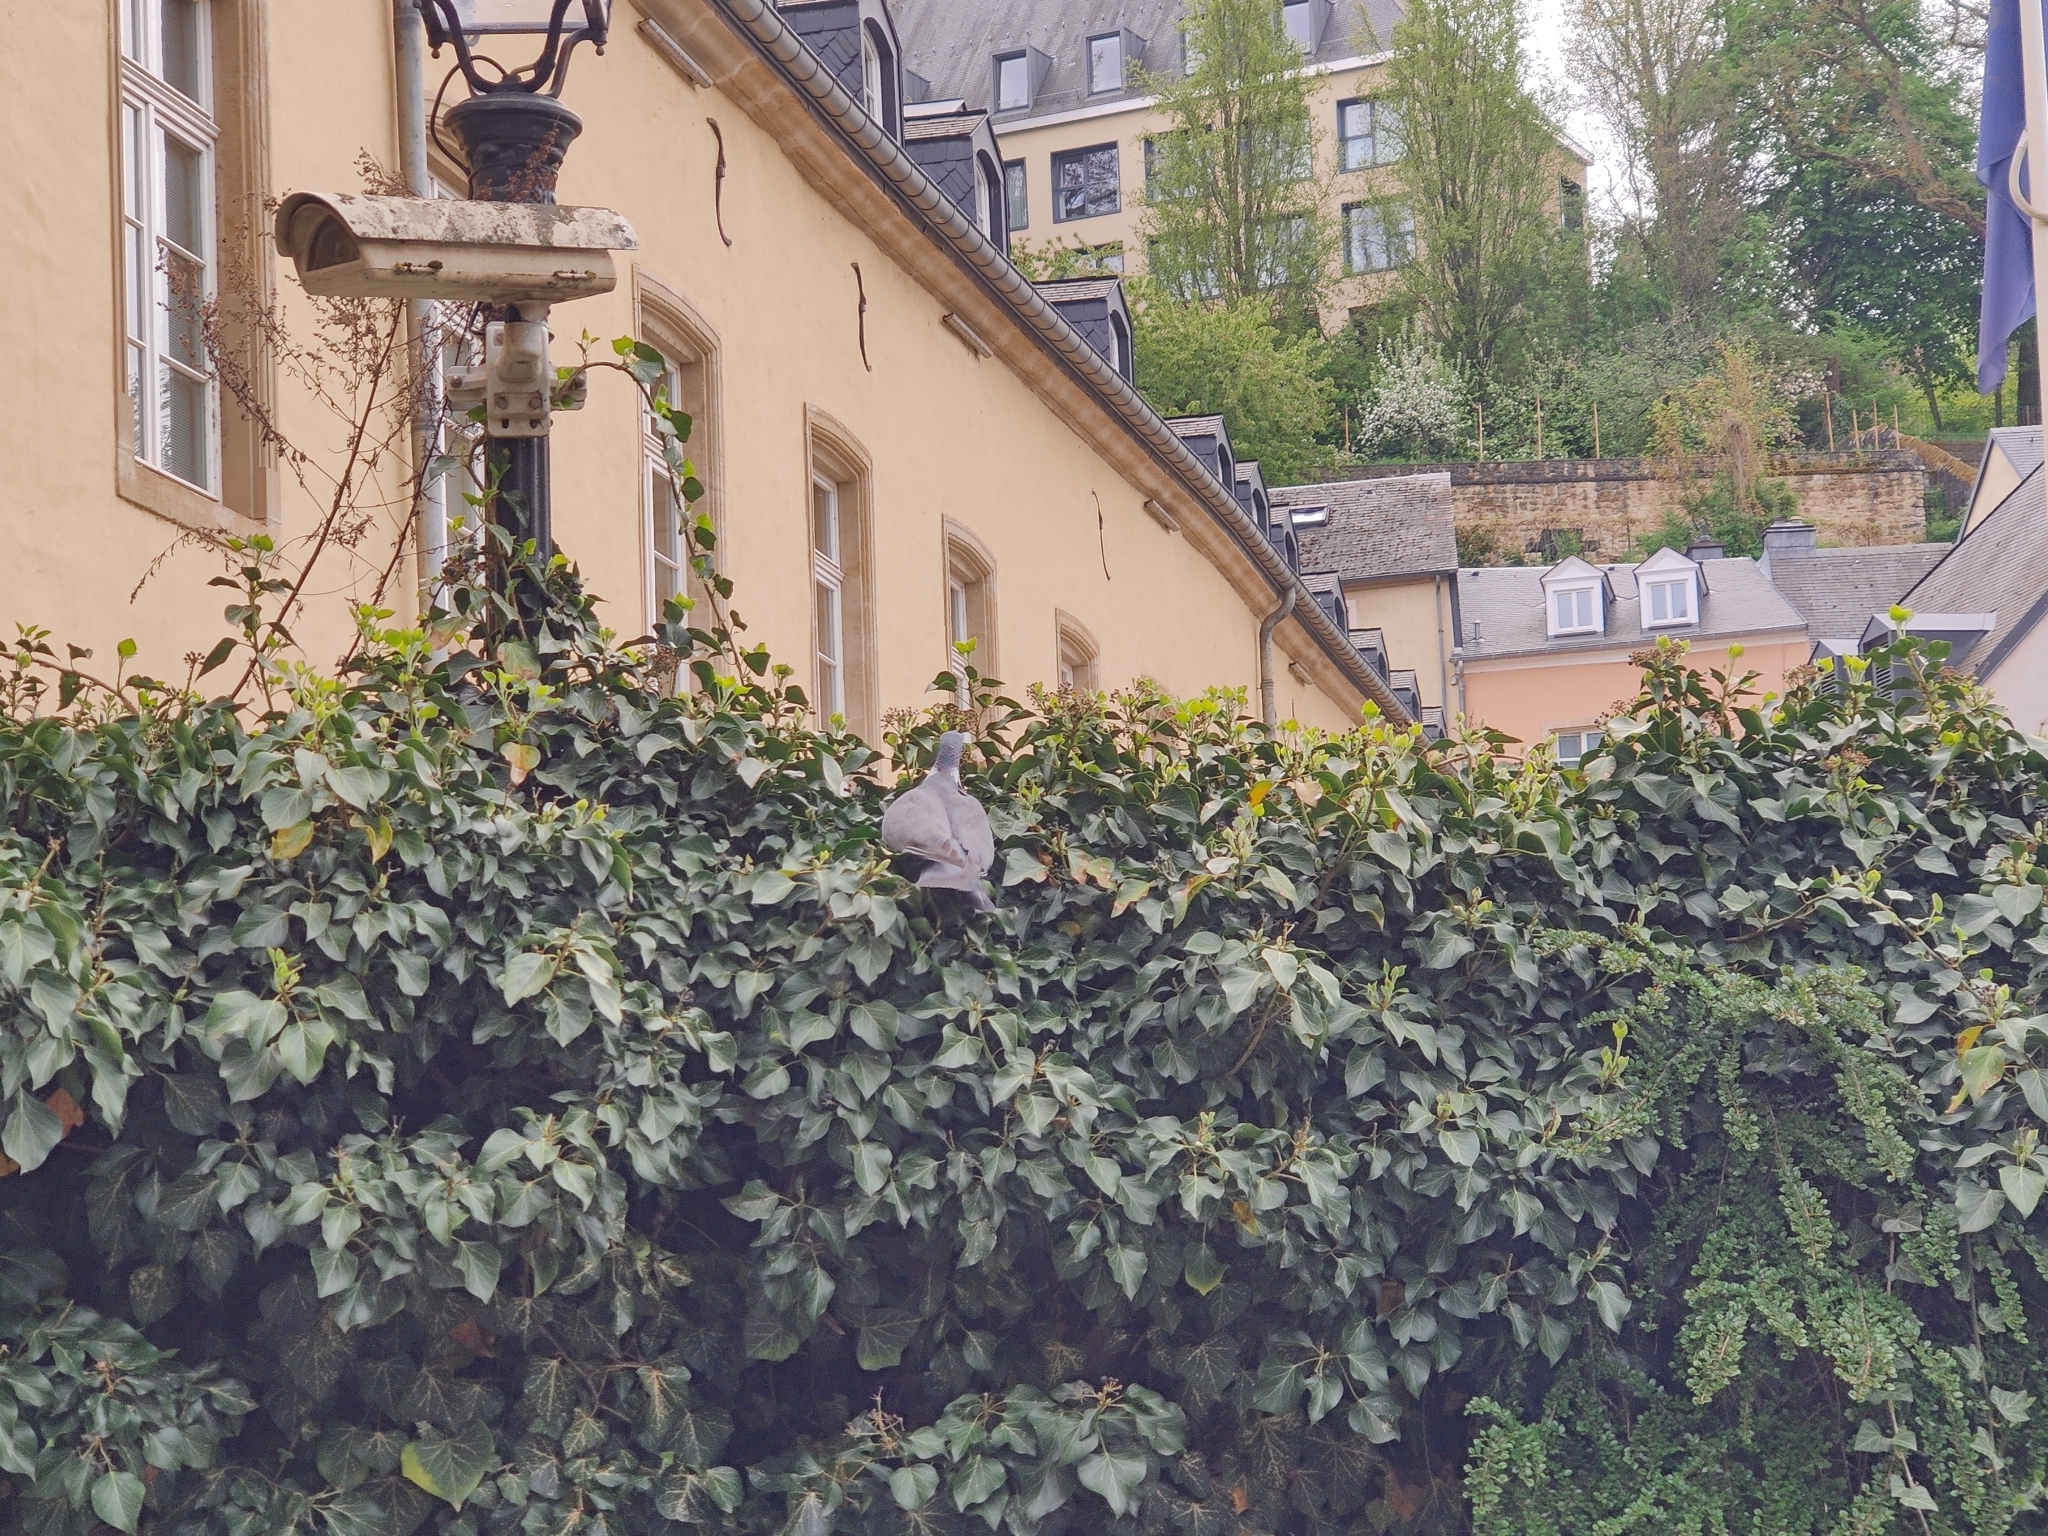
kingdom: Animalia
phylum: Chordata
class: Aves
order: Columbiformes
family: Columbidae
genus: Columba
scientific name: Columba palumbus
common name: Common wood pigeon
